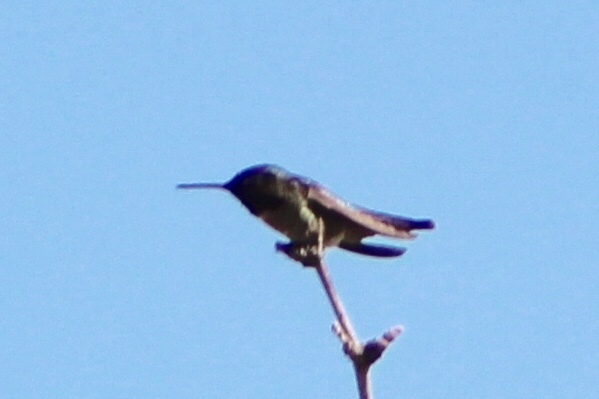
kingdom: Animalia
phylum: Chordata
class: Aves
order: Apodiformes
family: Trochilidae
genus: Calypte
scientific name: Calypte anna
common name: Anna's hummingbird
